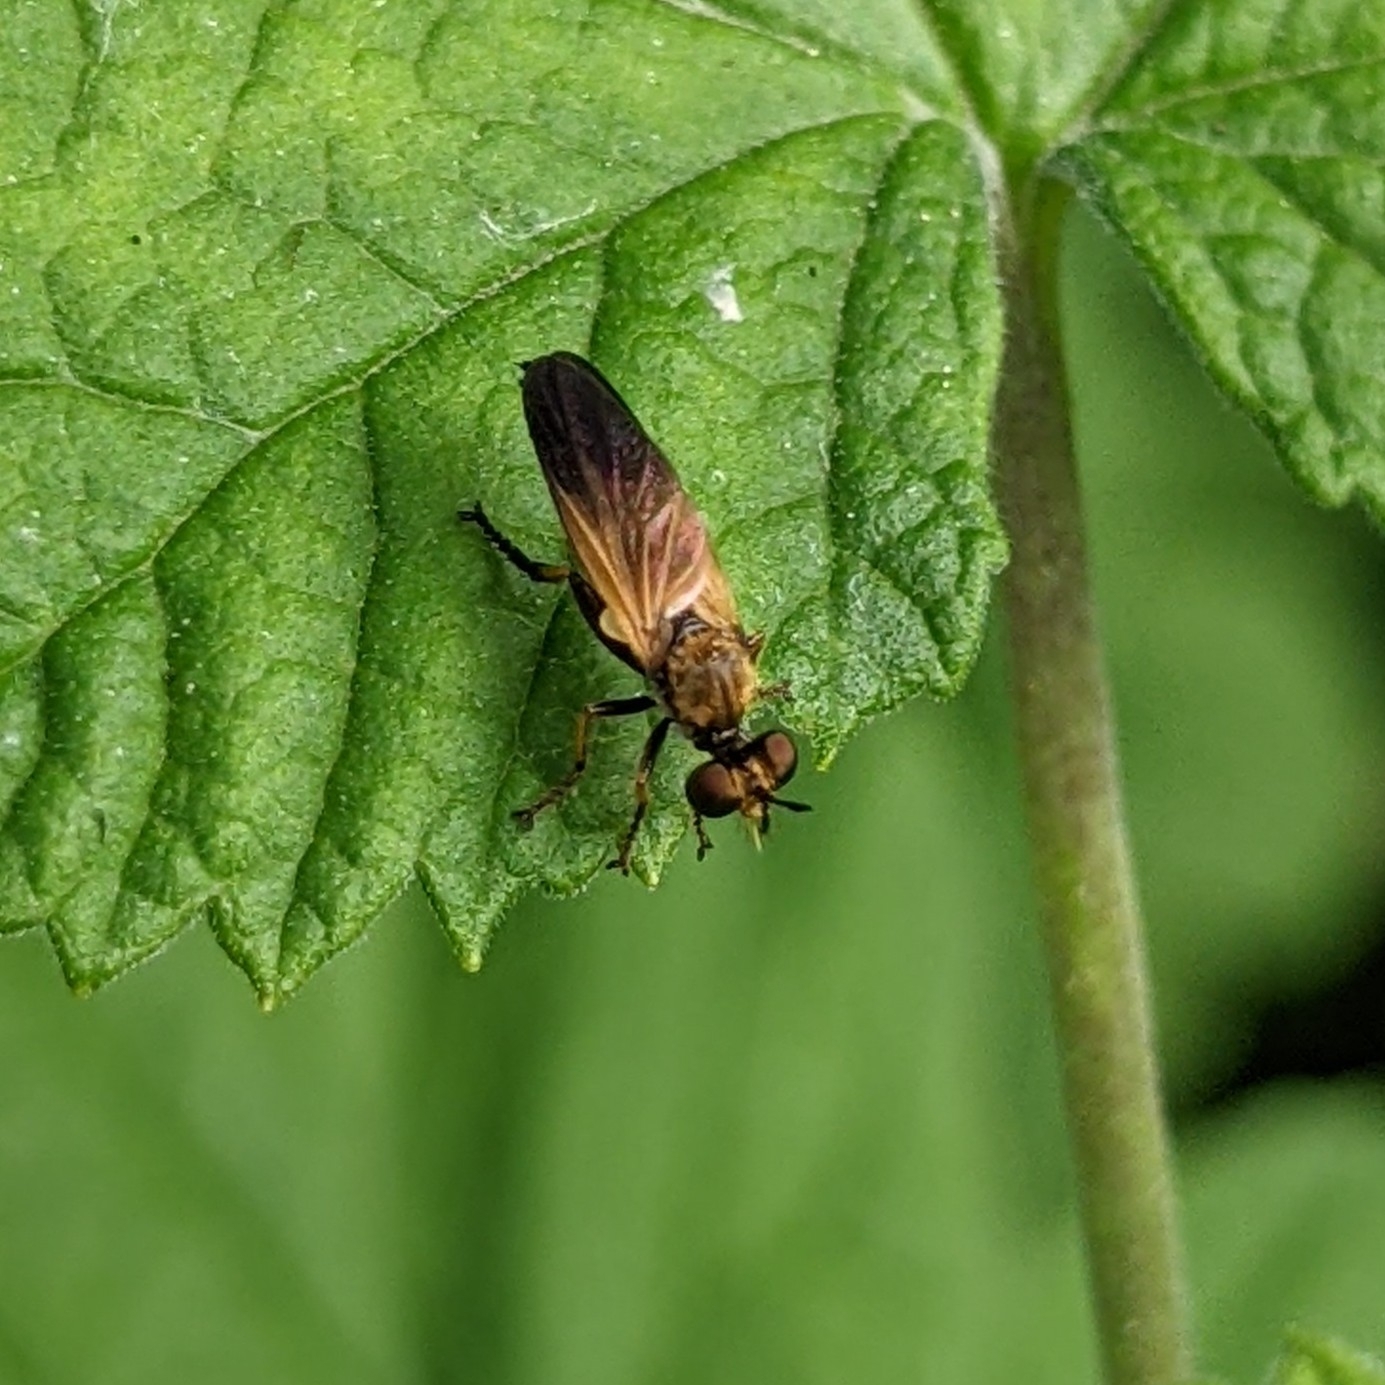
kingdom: Animalia
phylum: Arthropoda
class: Insecta
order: Diptera
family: Asilidae
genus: Eudioctria
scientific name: Eudioctria sackeni
